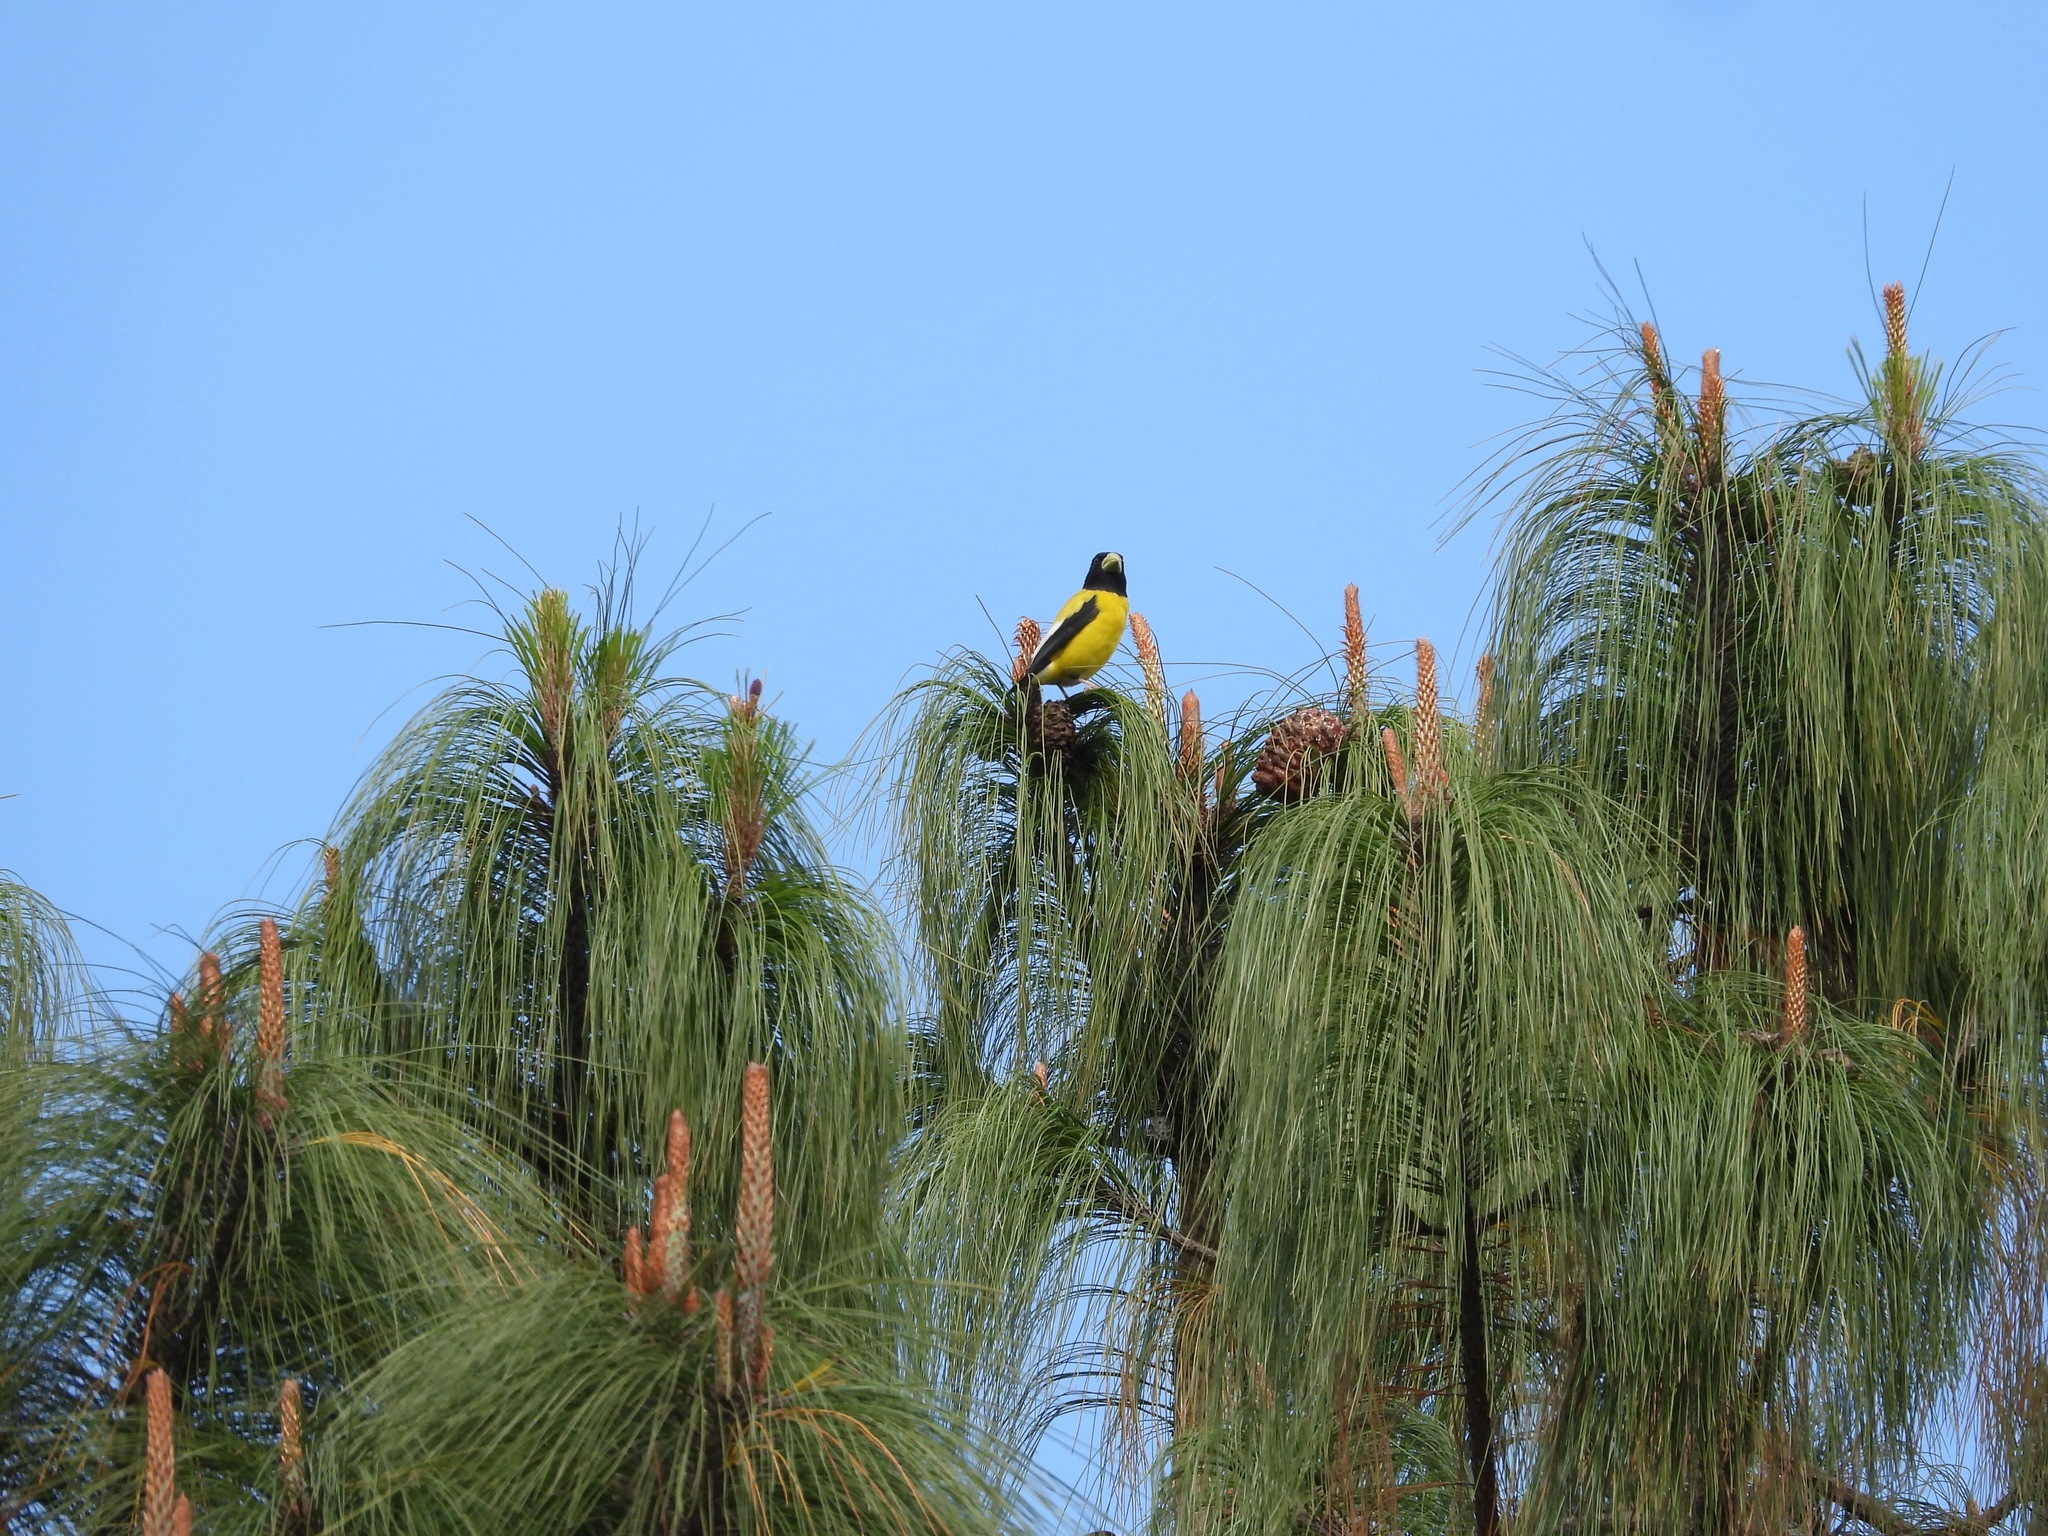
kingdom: Animalia
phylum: Chordata
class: Aves
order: Passeriformes
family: Fringillidae
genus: Hesperiphona
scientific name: Hesperiphona abeillei
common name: Hooded grosbeak
